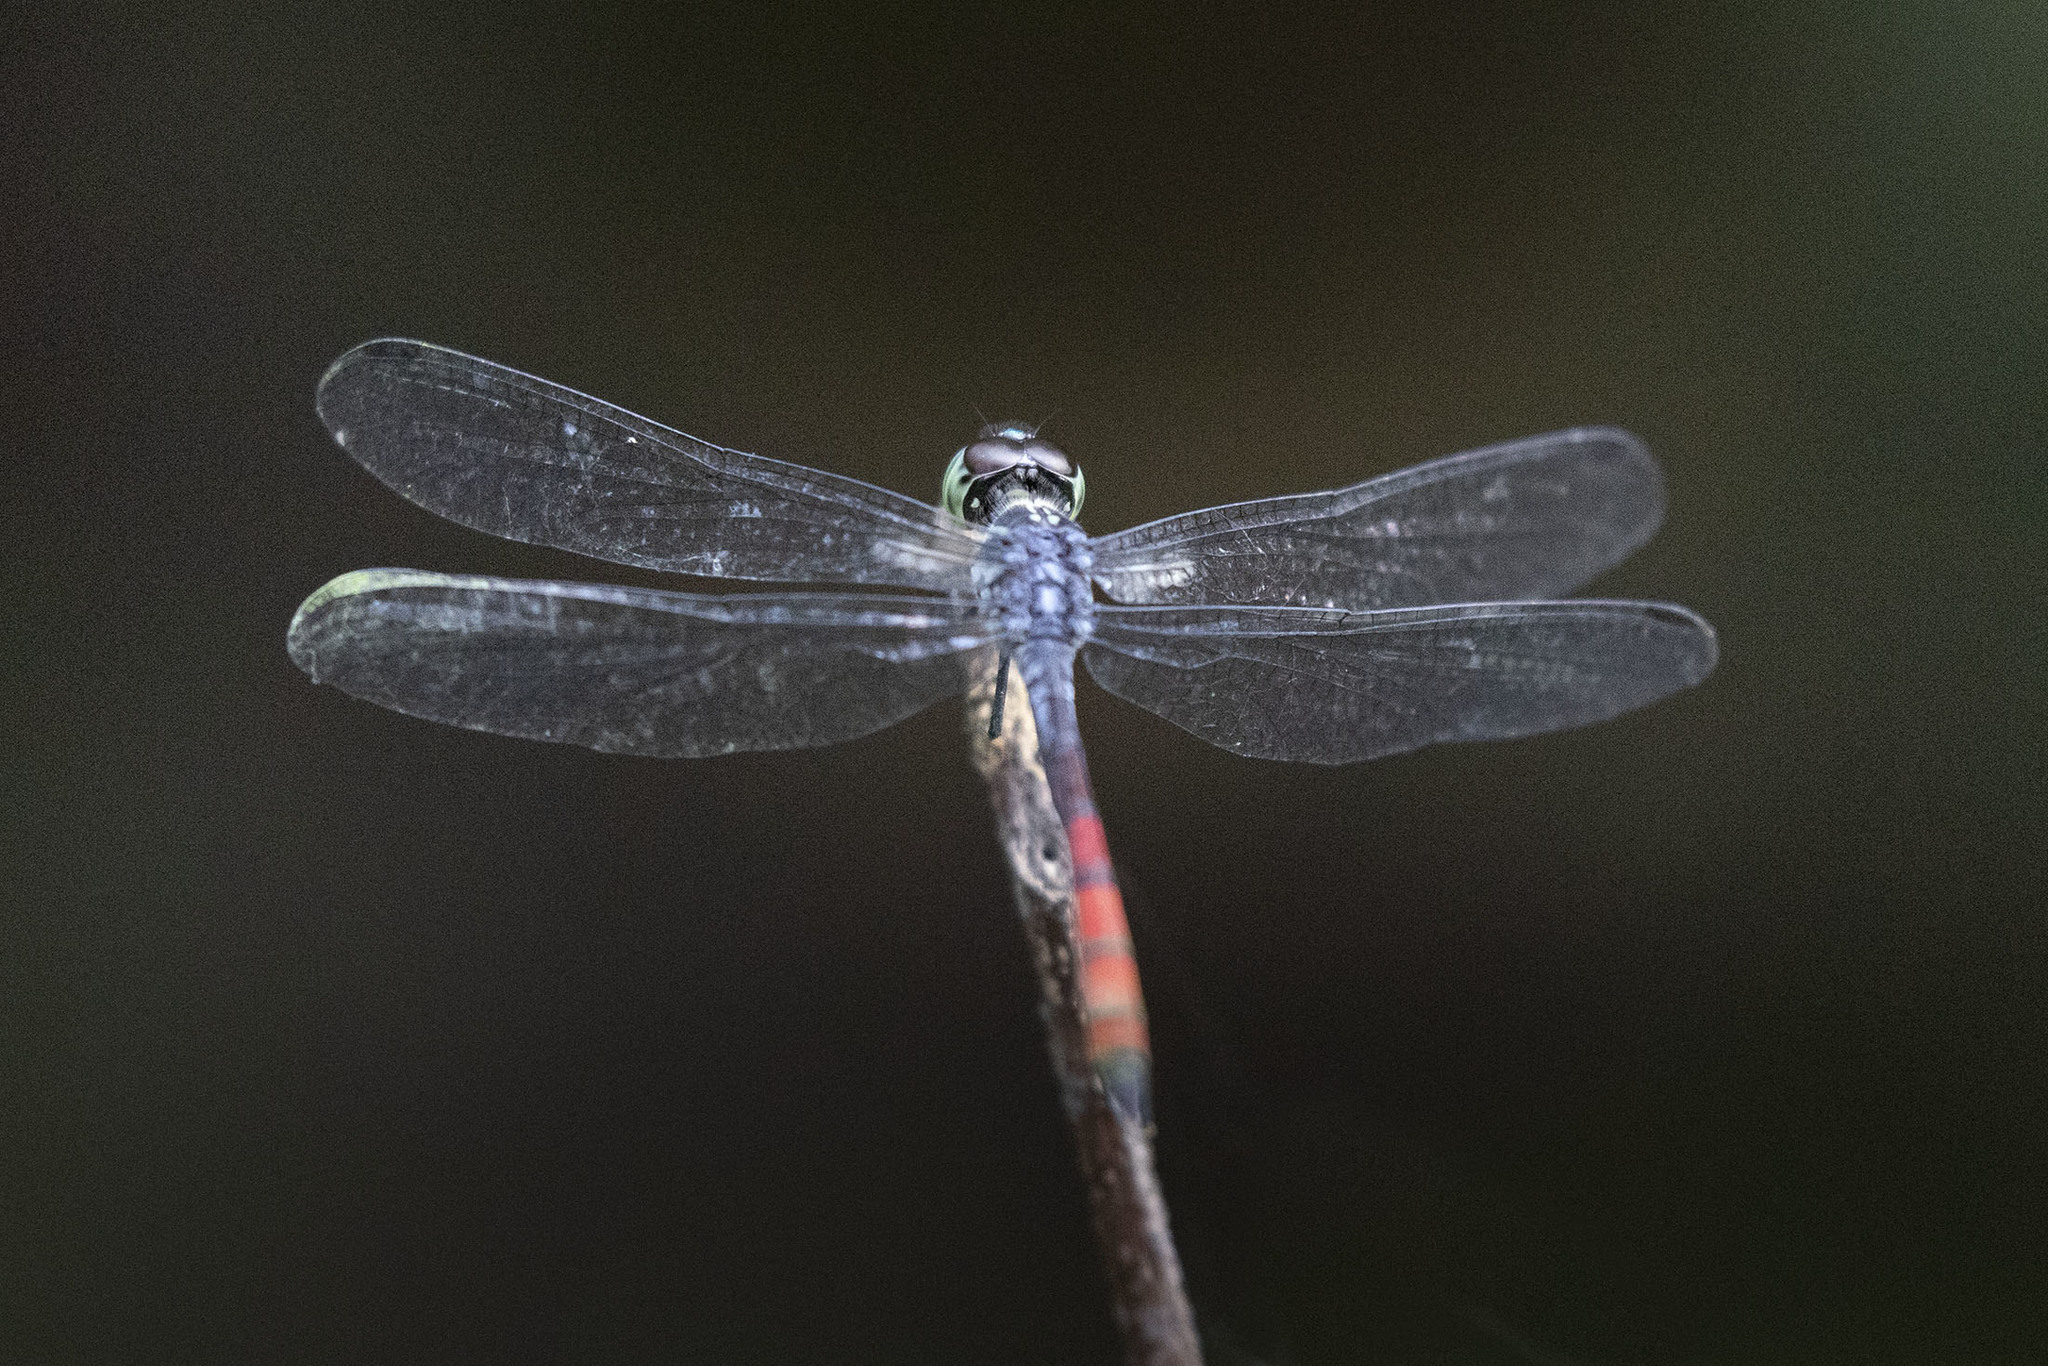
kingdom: Animalia
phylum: Arthropoda
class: Insecta
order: Odonata
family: Libellulidae
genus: Nesoxenia
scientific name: Nesoxenia lineata
